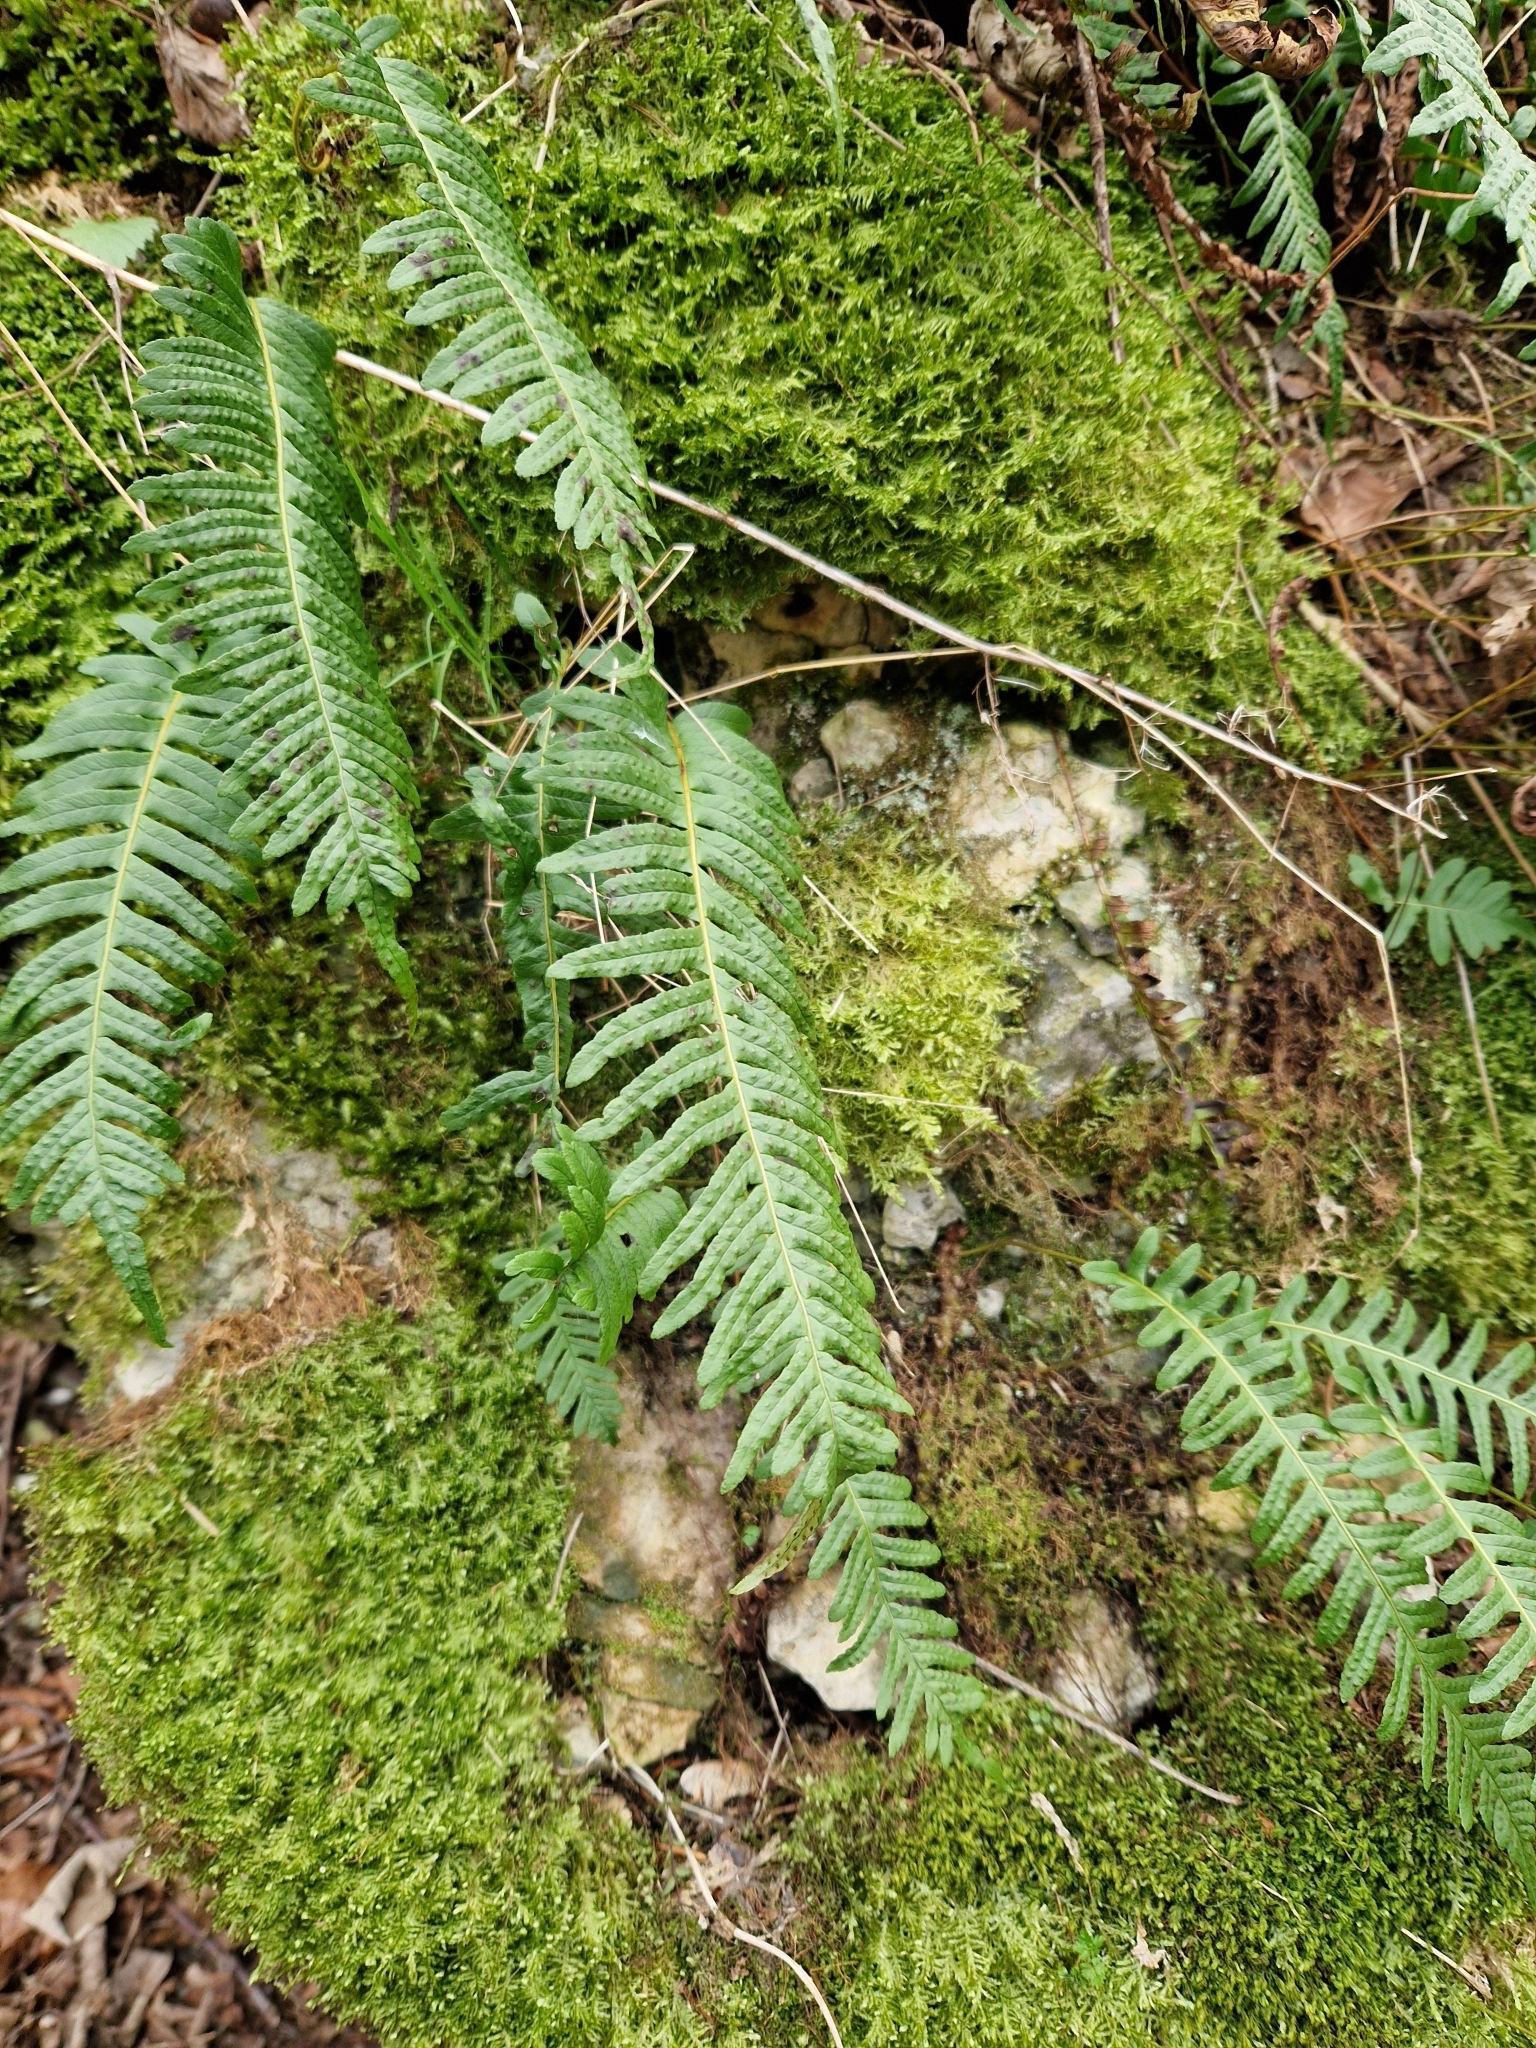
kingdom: Plantae
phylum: Tracheophyta
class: Polypodiopsida
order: Polypodiales
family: Polypodiaceae
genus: Polypodium
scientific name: Polypodium vulgare
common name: Common polypody
